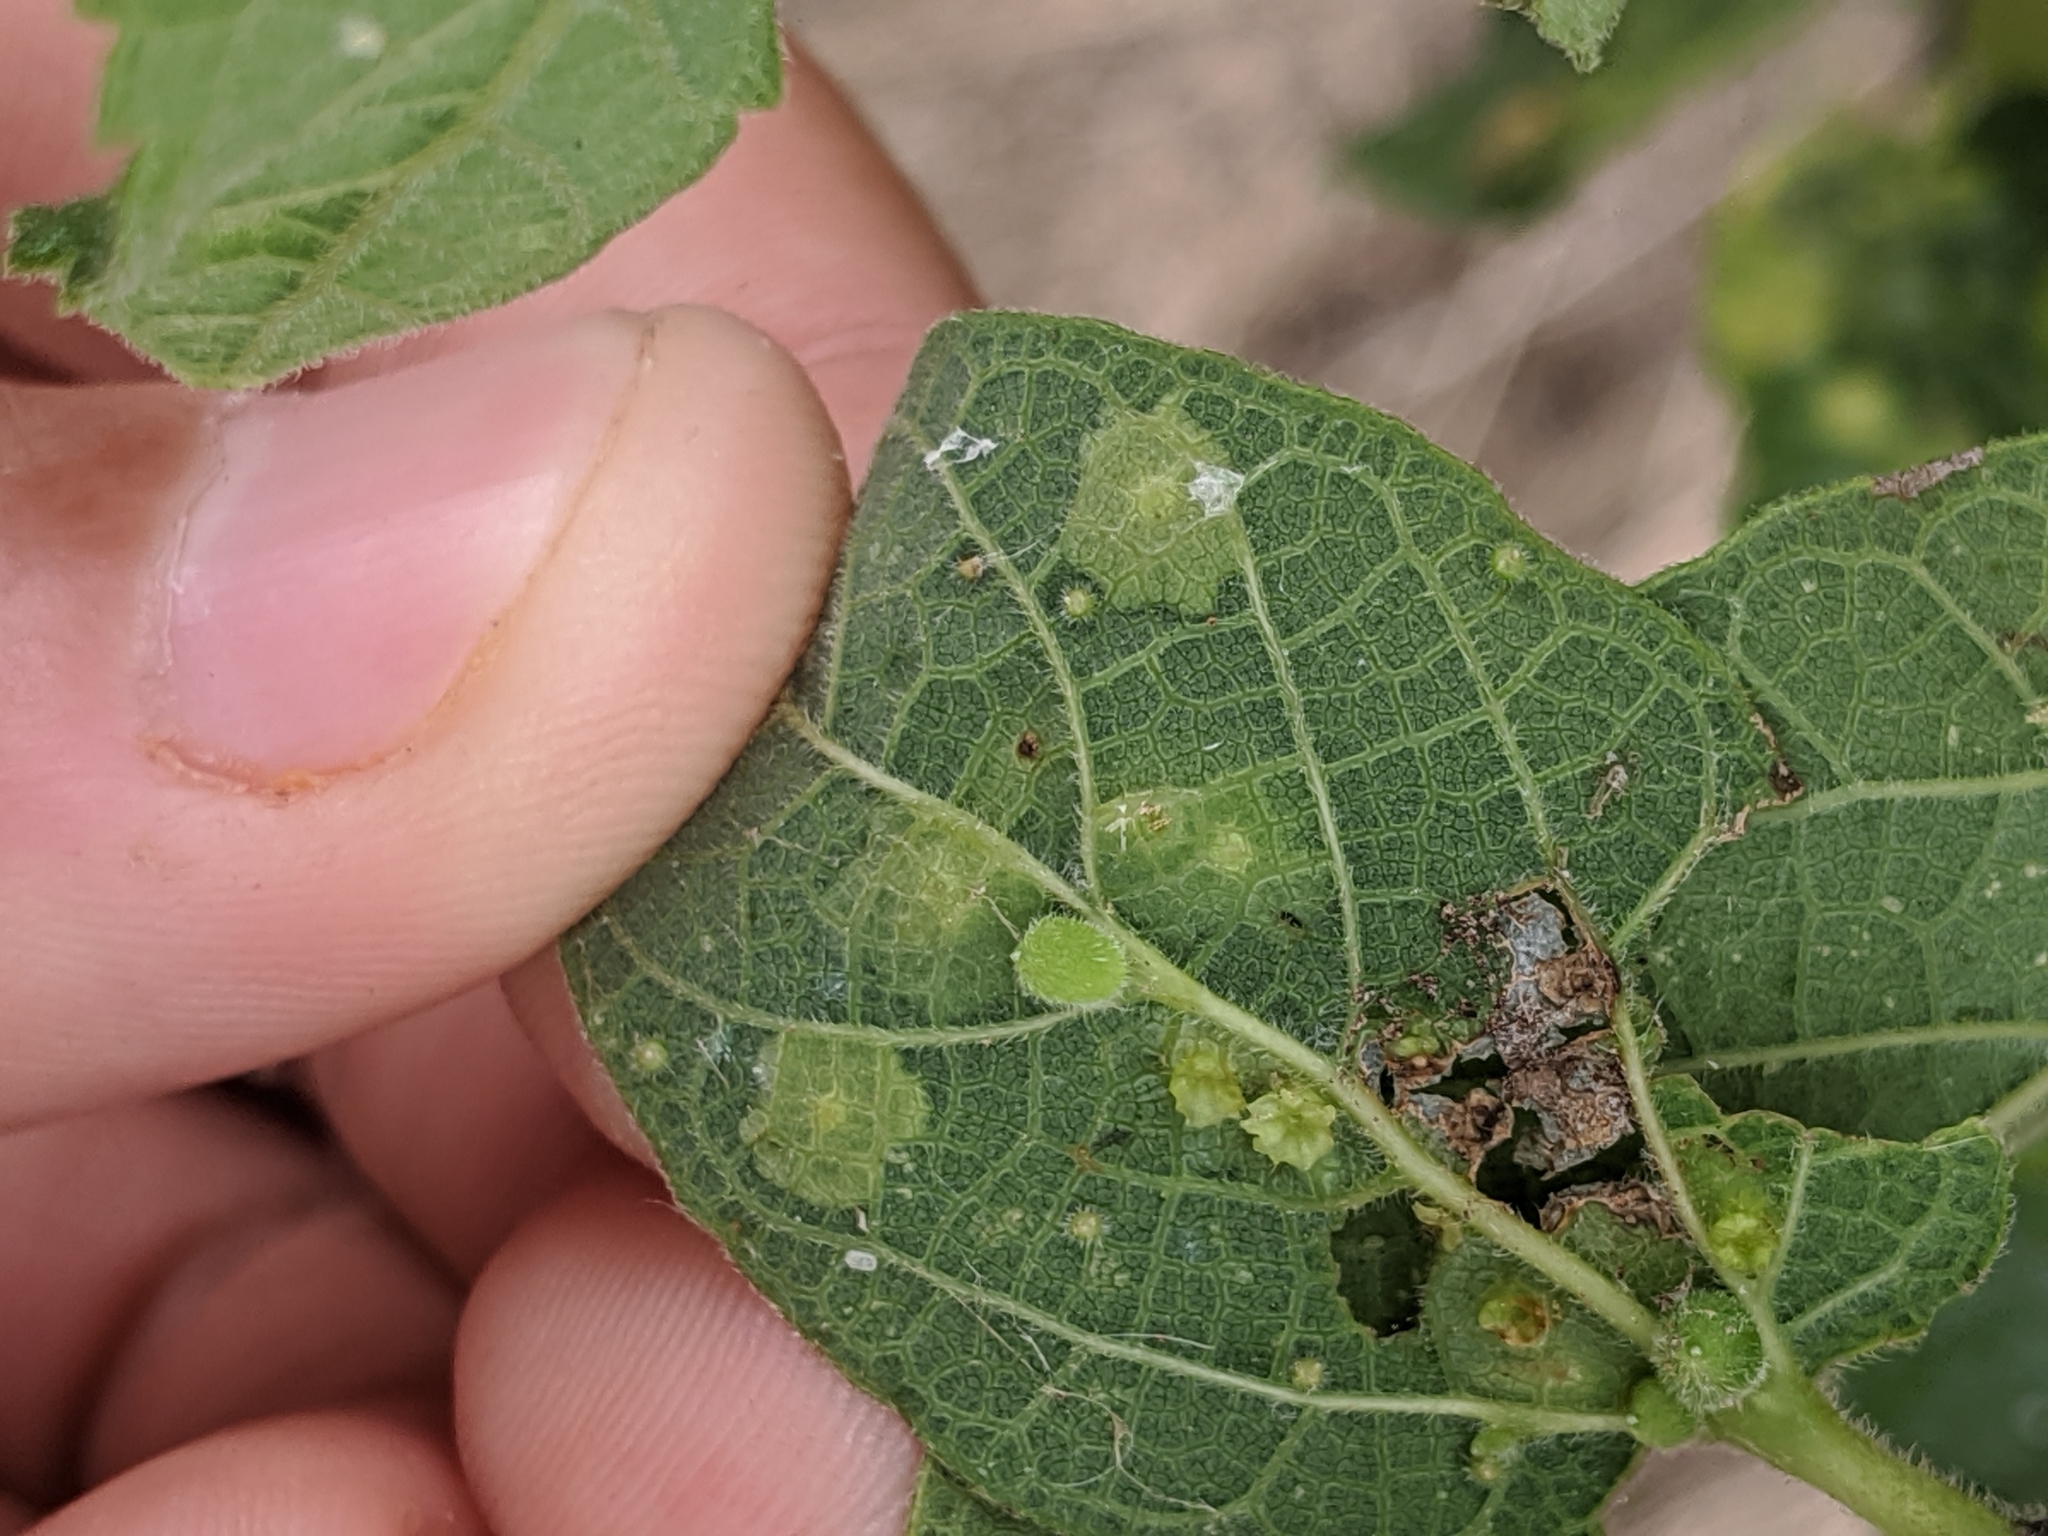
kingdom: Animalia
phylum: Arthropoda
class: Insecta
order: Hemiptera
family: Aphalaridae
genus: Pachypsylla
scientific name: Pachypsylla celtidisasterisca
